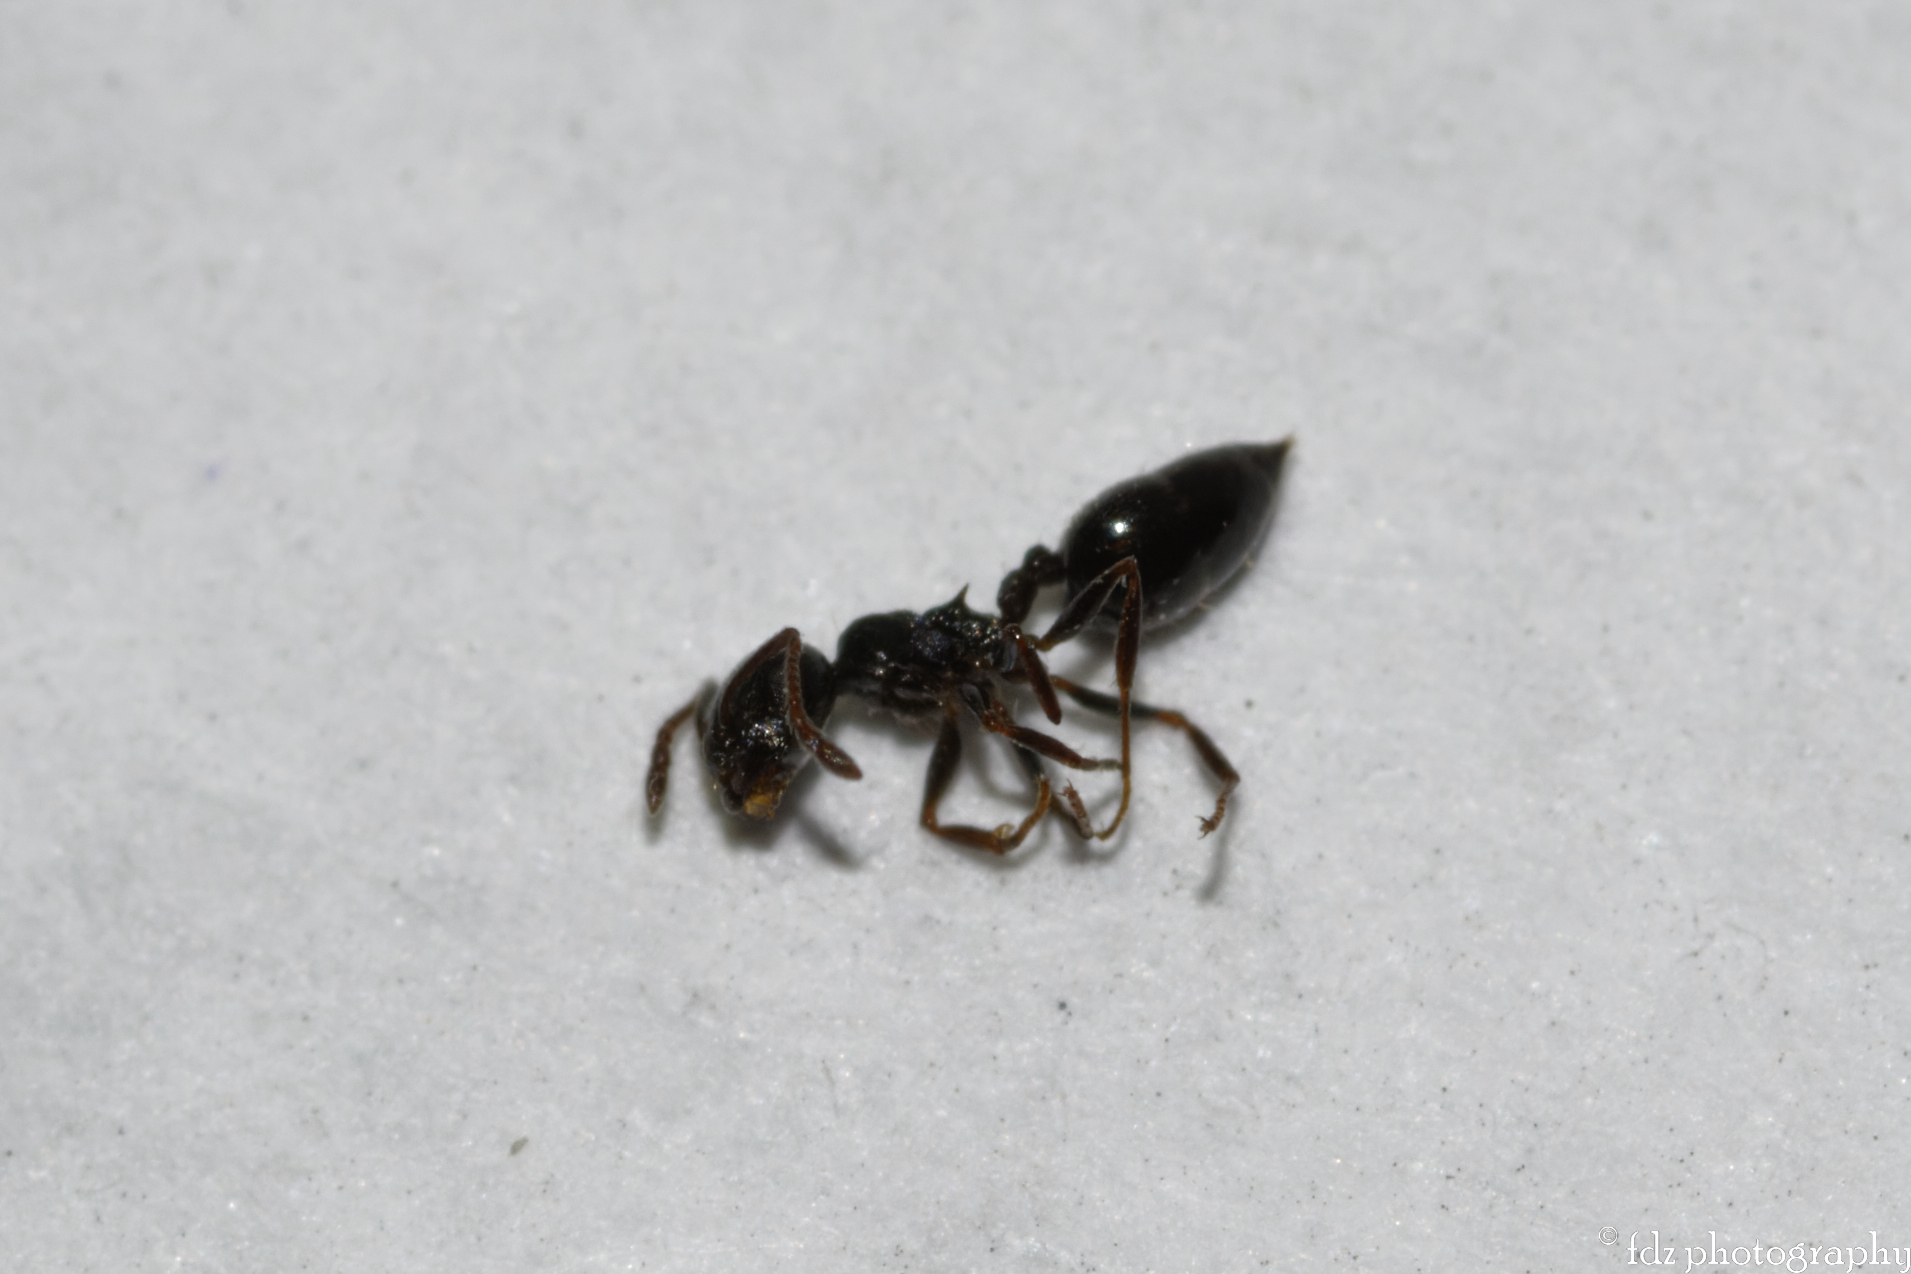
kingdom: Animalia
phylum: Arthropoda
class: Insecta
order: Hymenoptera
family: Formicidae
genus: Crematogaster
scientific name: Crematogaster auberti
